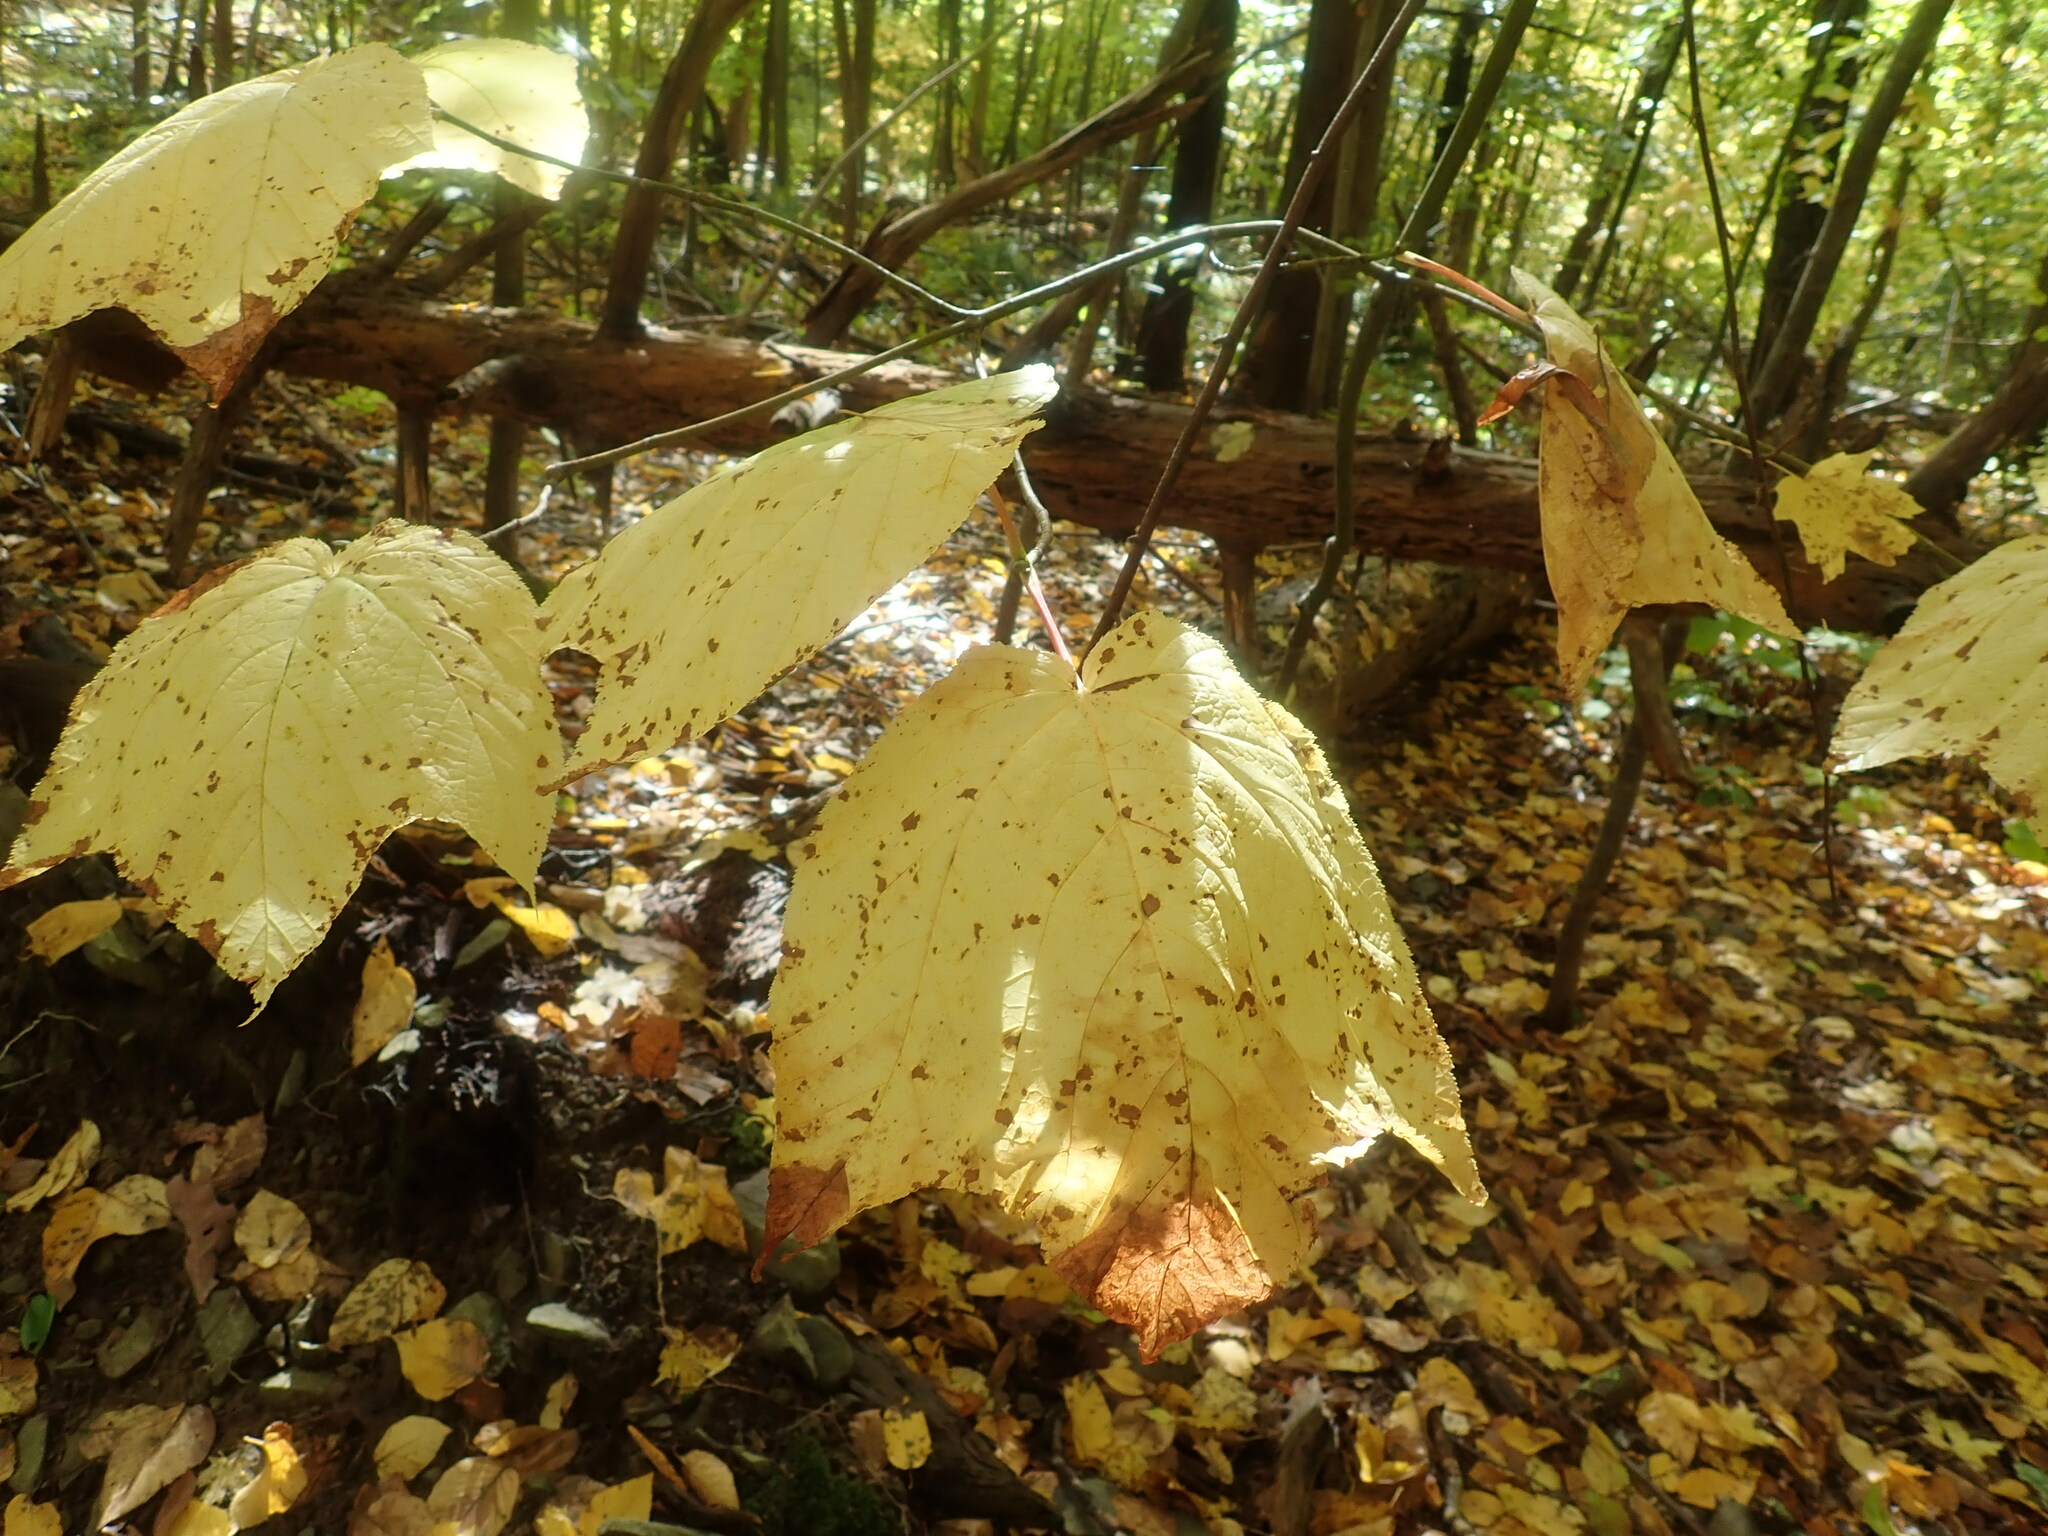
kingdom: Plantae
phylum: Tracheophyta
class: Magnoliopsida
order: Sapindales
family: Sapindaceae
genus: Acer
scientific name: Acer pensylvanicum
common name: Moosewood
